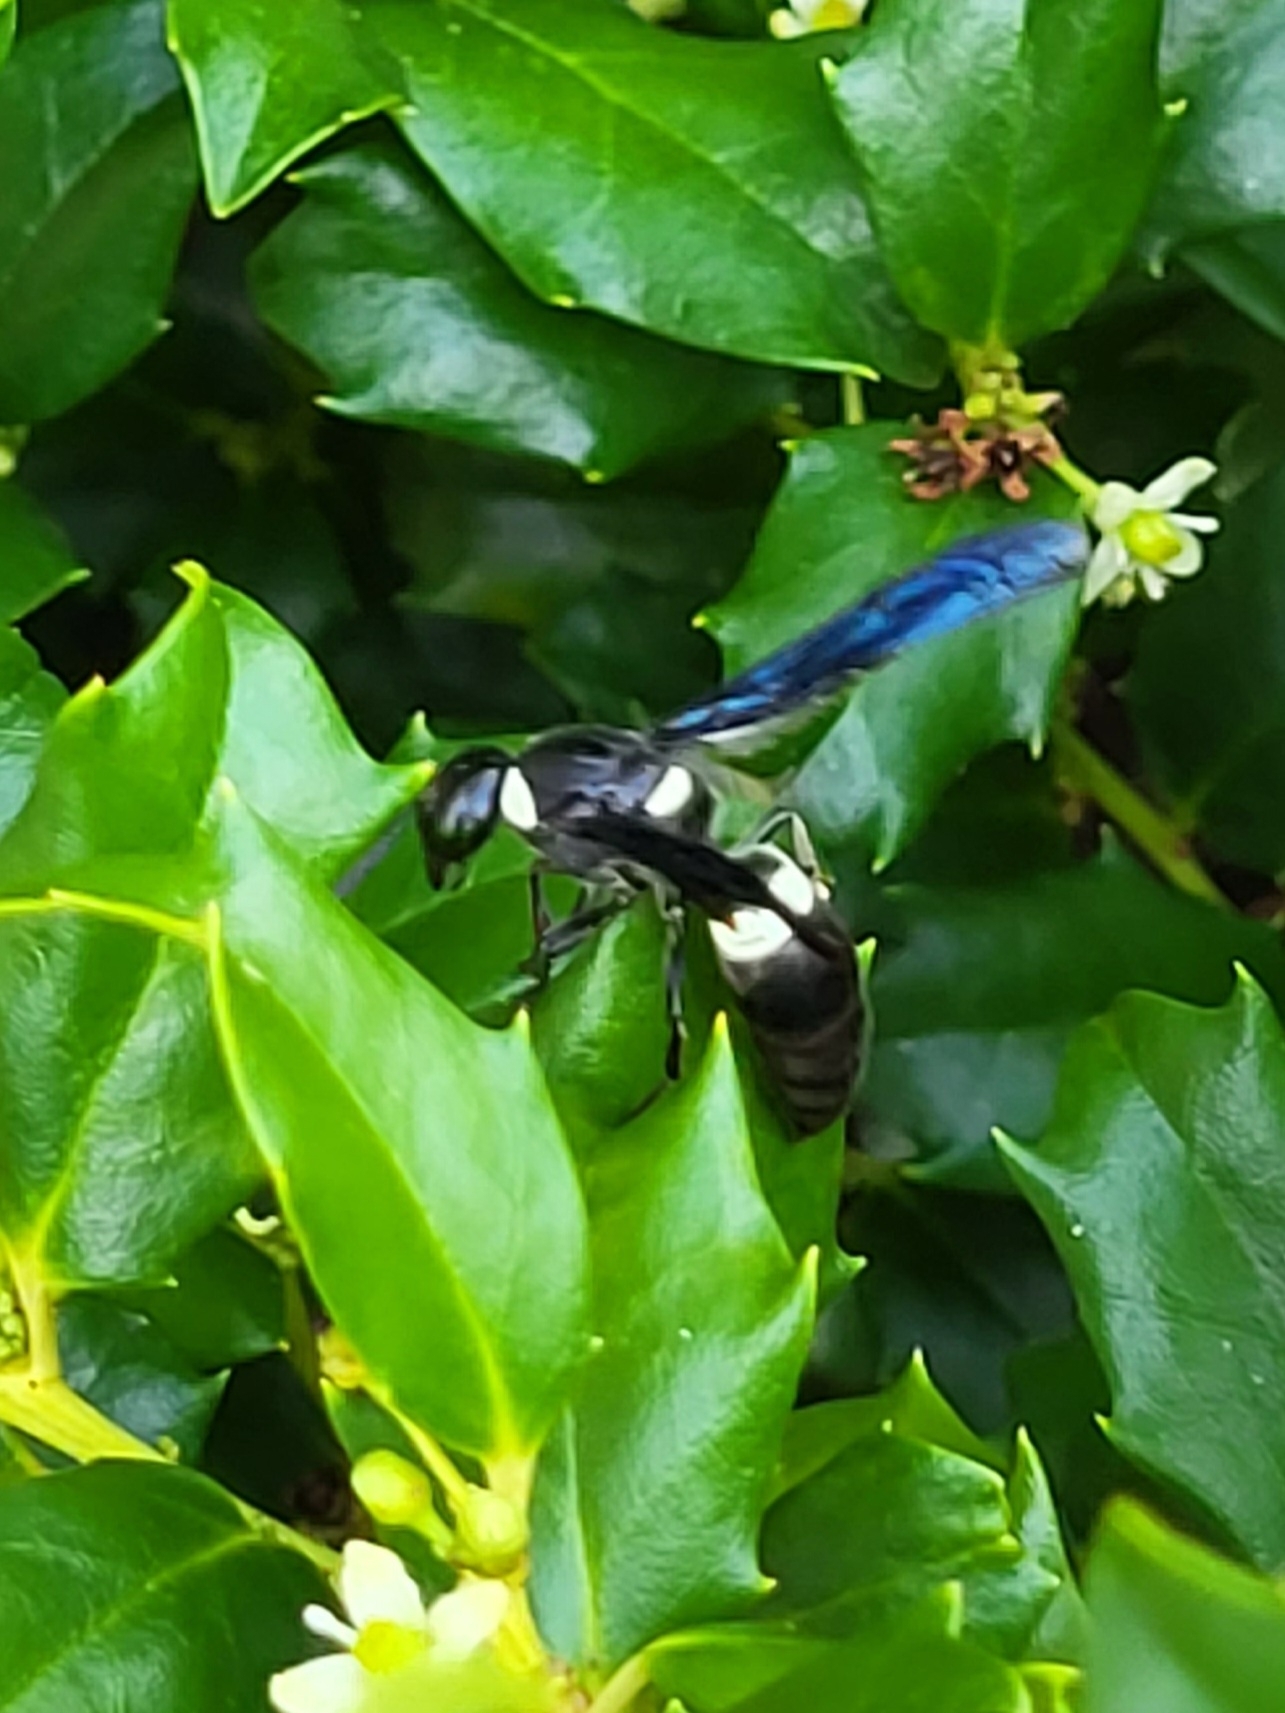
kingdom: Animalia
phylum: Arthropoda
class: Insecta
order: Hymenoptera
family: Eumenidae
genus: Monobia
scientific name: Monobia quadridens
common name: Four-toothed mason wasp
